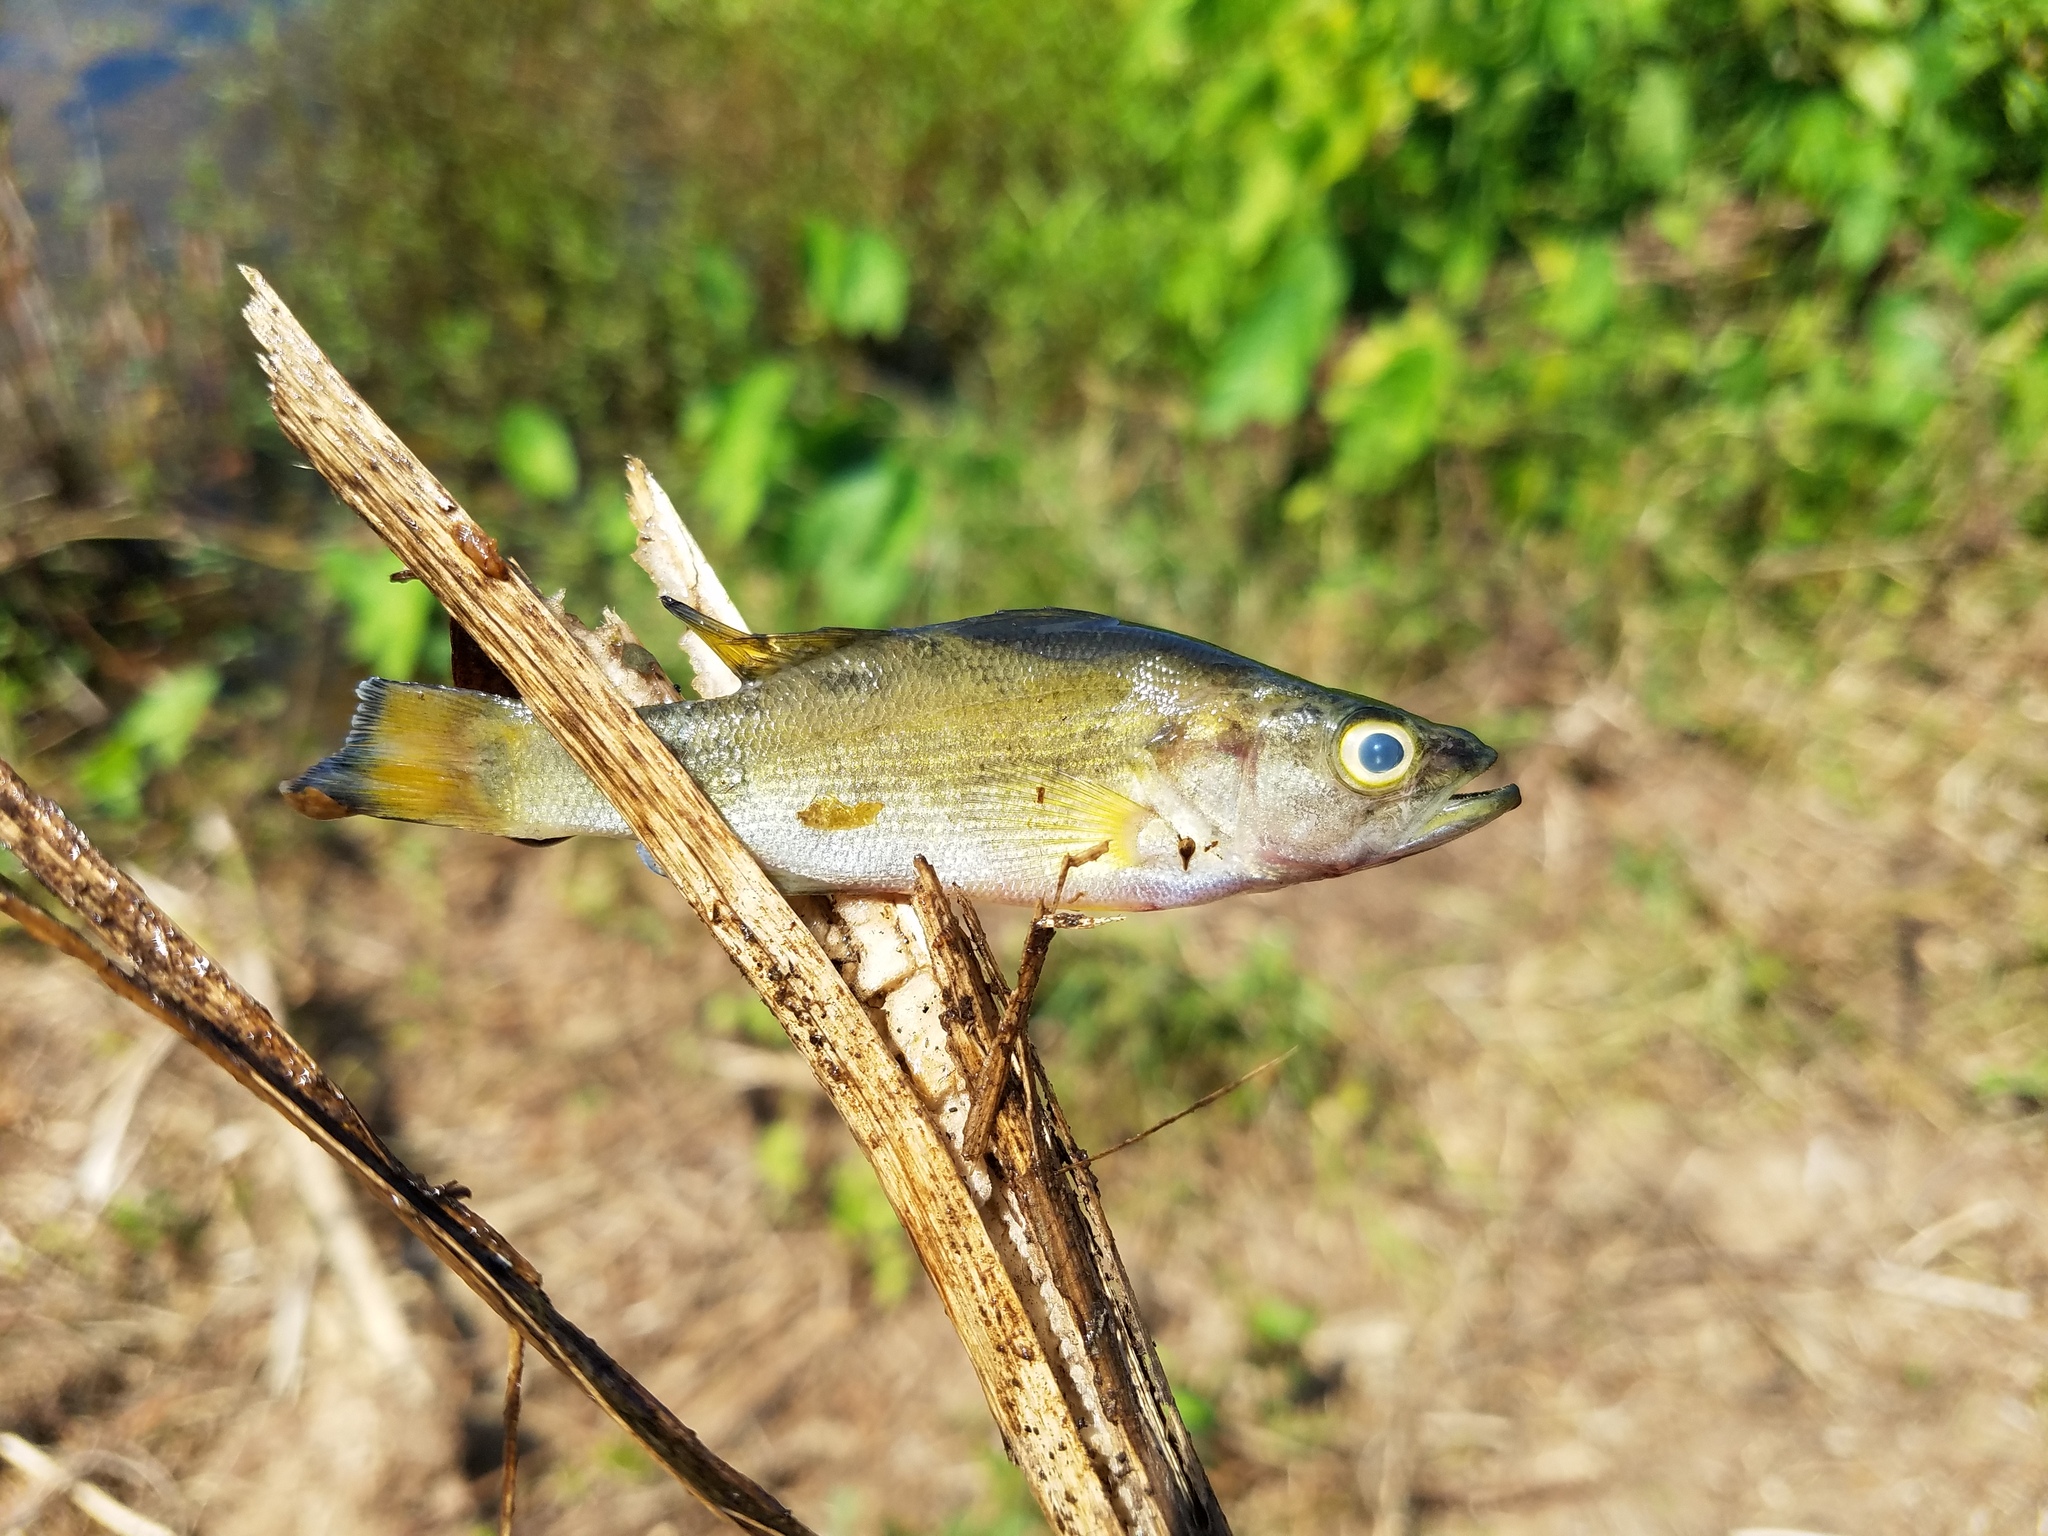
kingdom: Animalia
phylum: Chordata
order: Perciformes
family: Centrarchidae
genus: Micropterus
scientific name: Micropterus dolomieu
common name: Smallmouth bass
